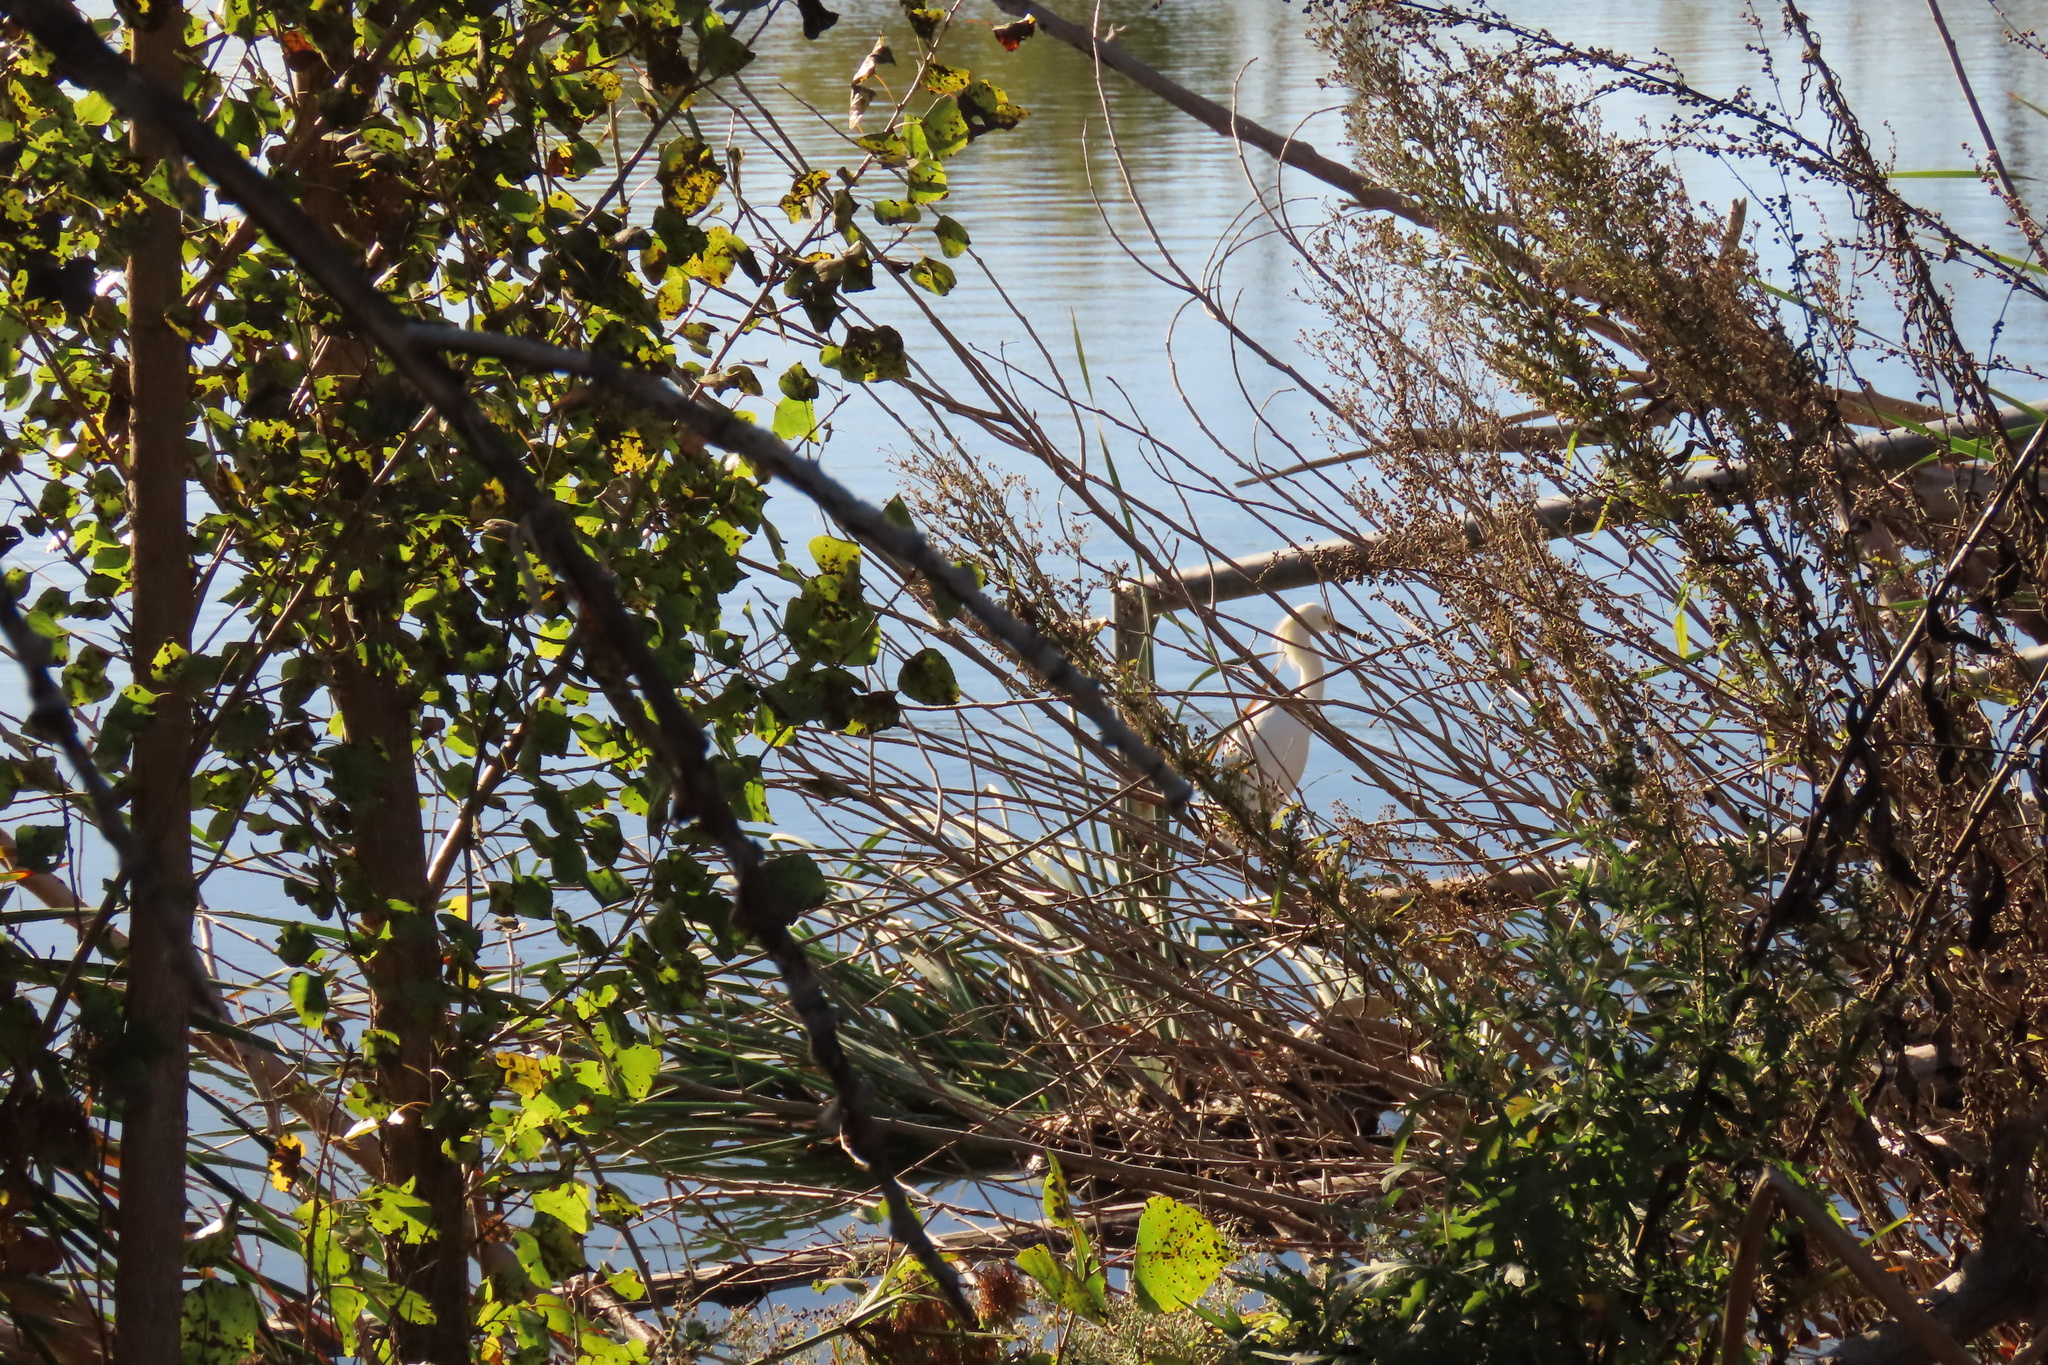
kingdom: Animalia
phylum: Chordata
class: Aves
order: Pelecaniformes
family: Ardeidae
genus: Egretta
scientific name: Egretta thula
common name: Snowy egret
